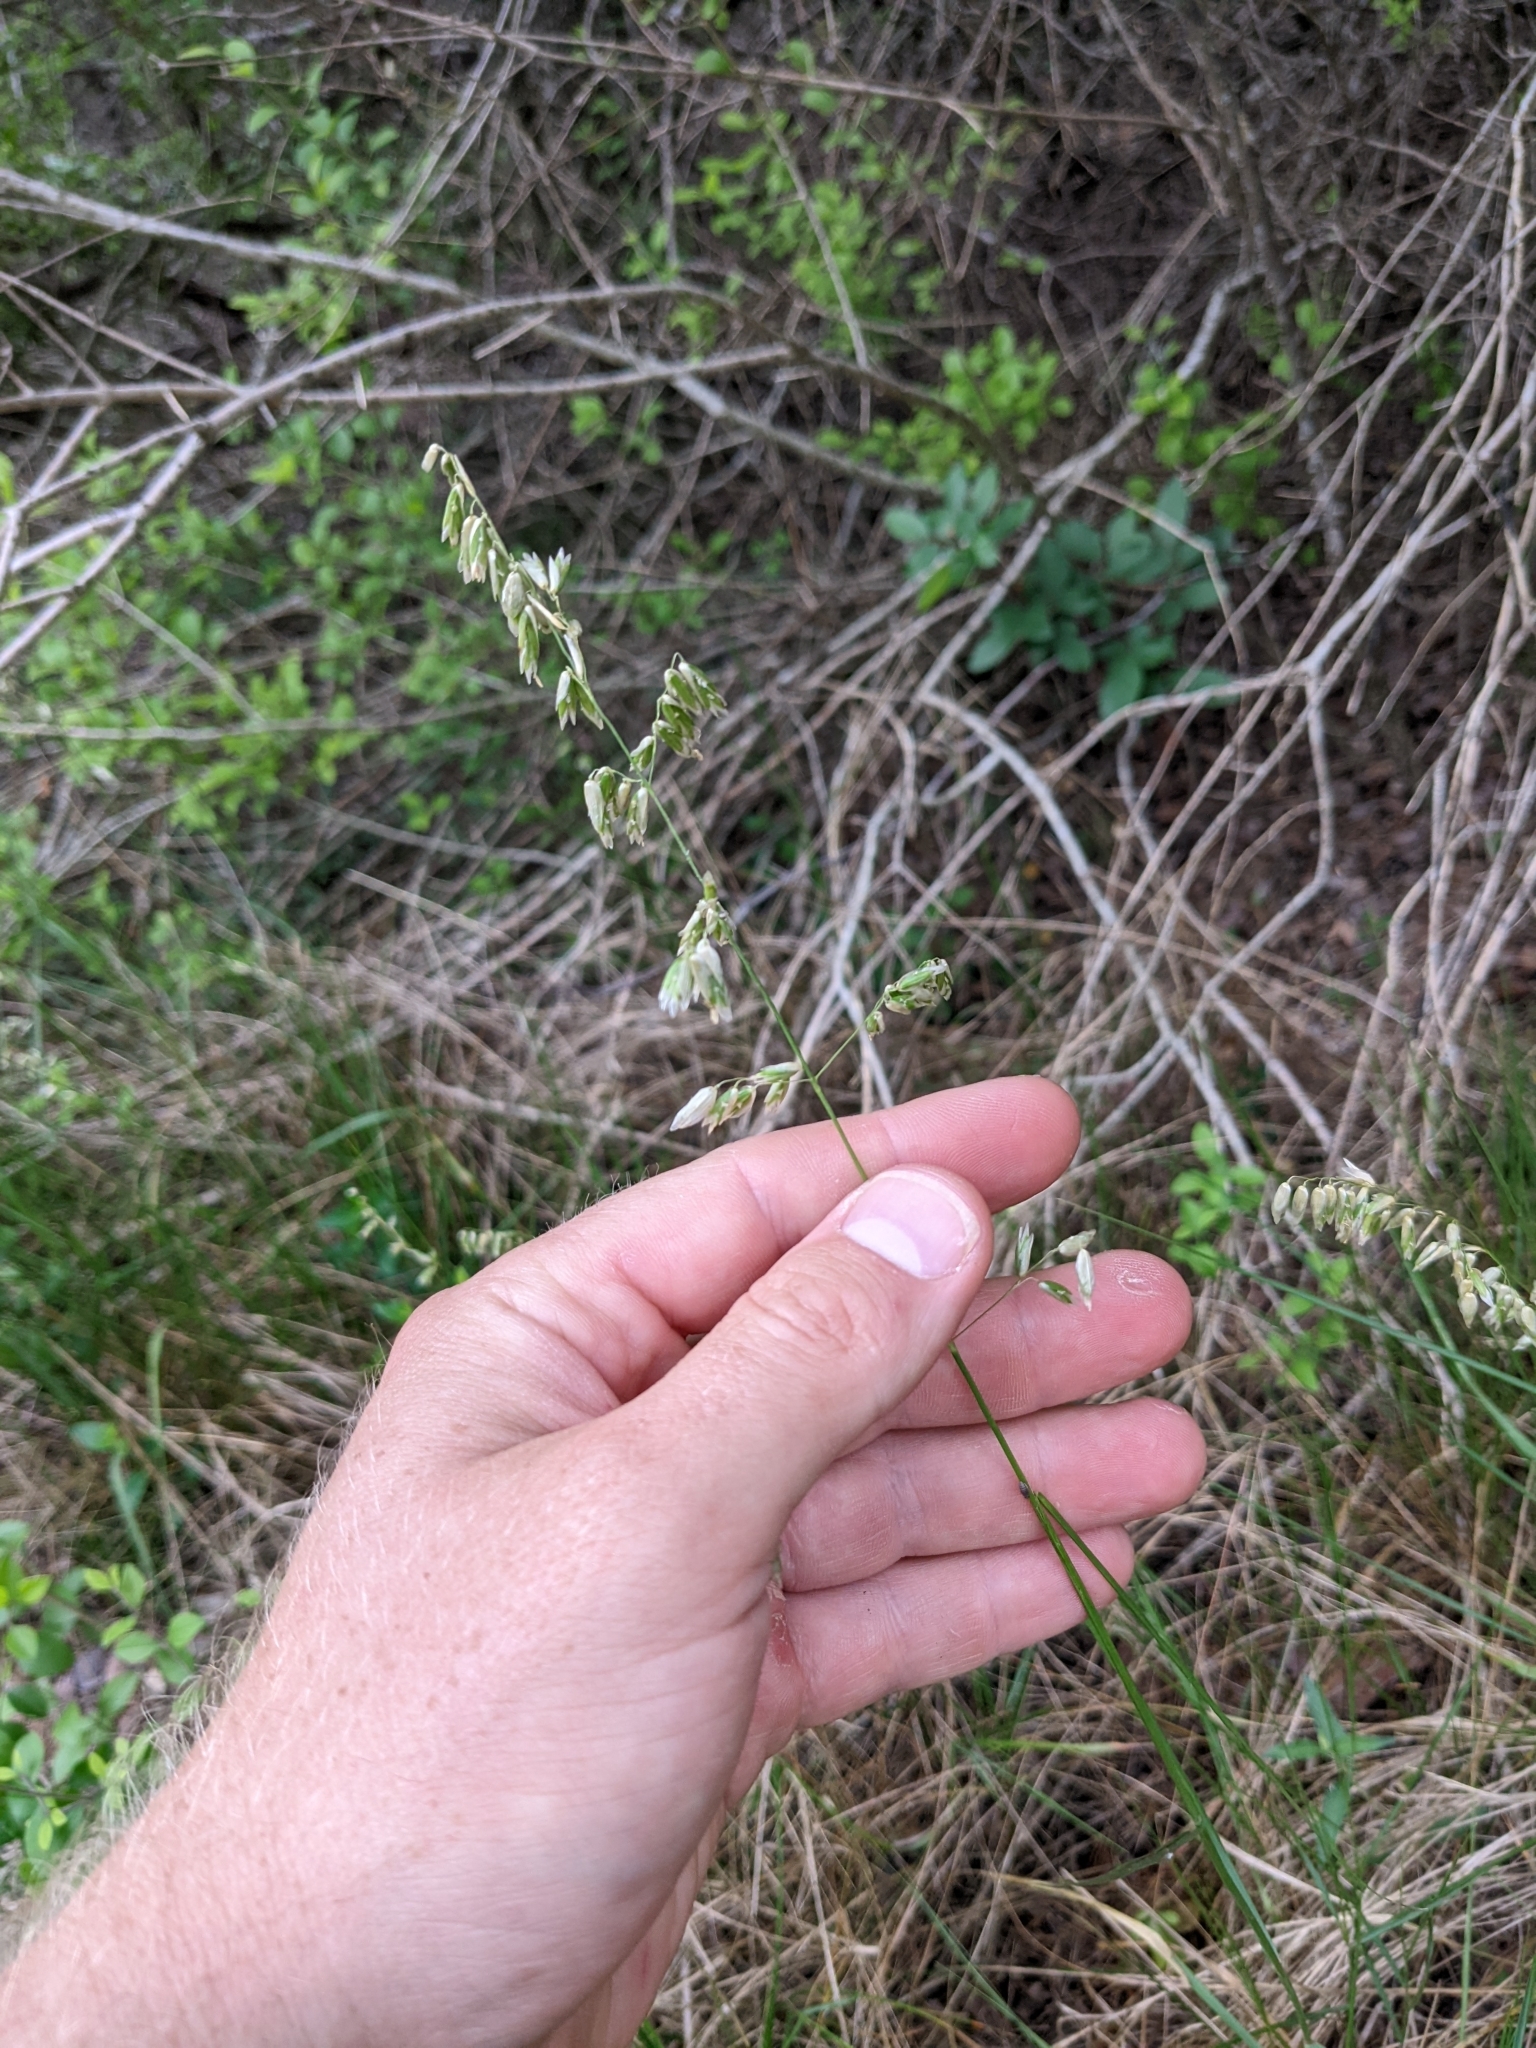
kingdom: Plantae
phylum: Tracheophyta
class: Liliopsida
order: Poales
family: Poaceae
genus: Melica
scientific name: Melica nitens
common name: Three-flower melic
